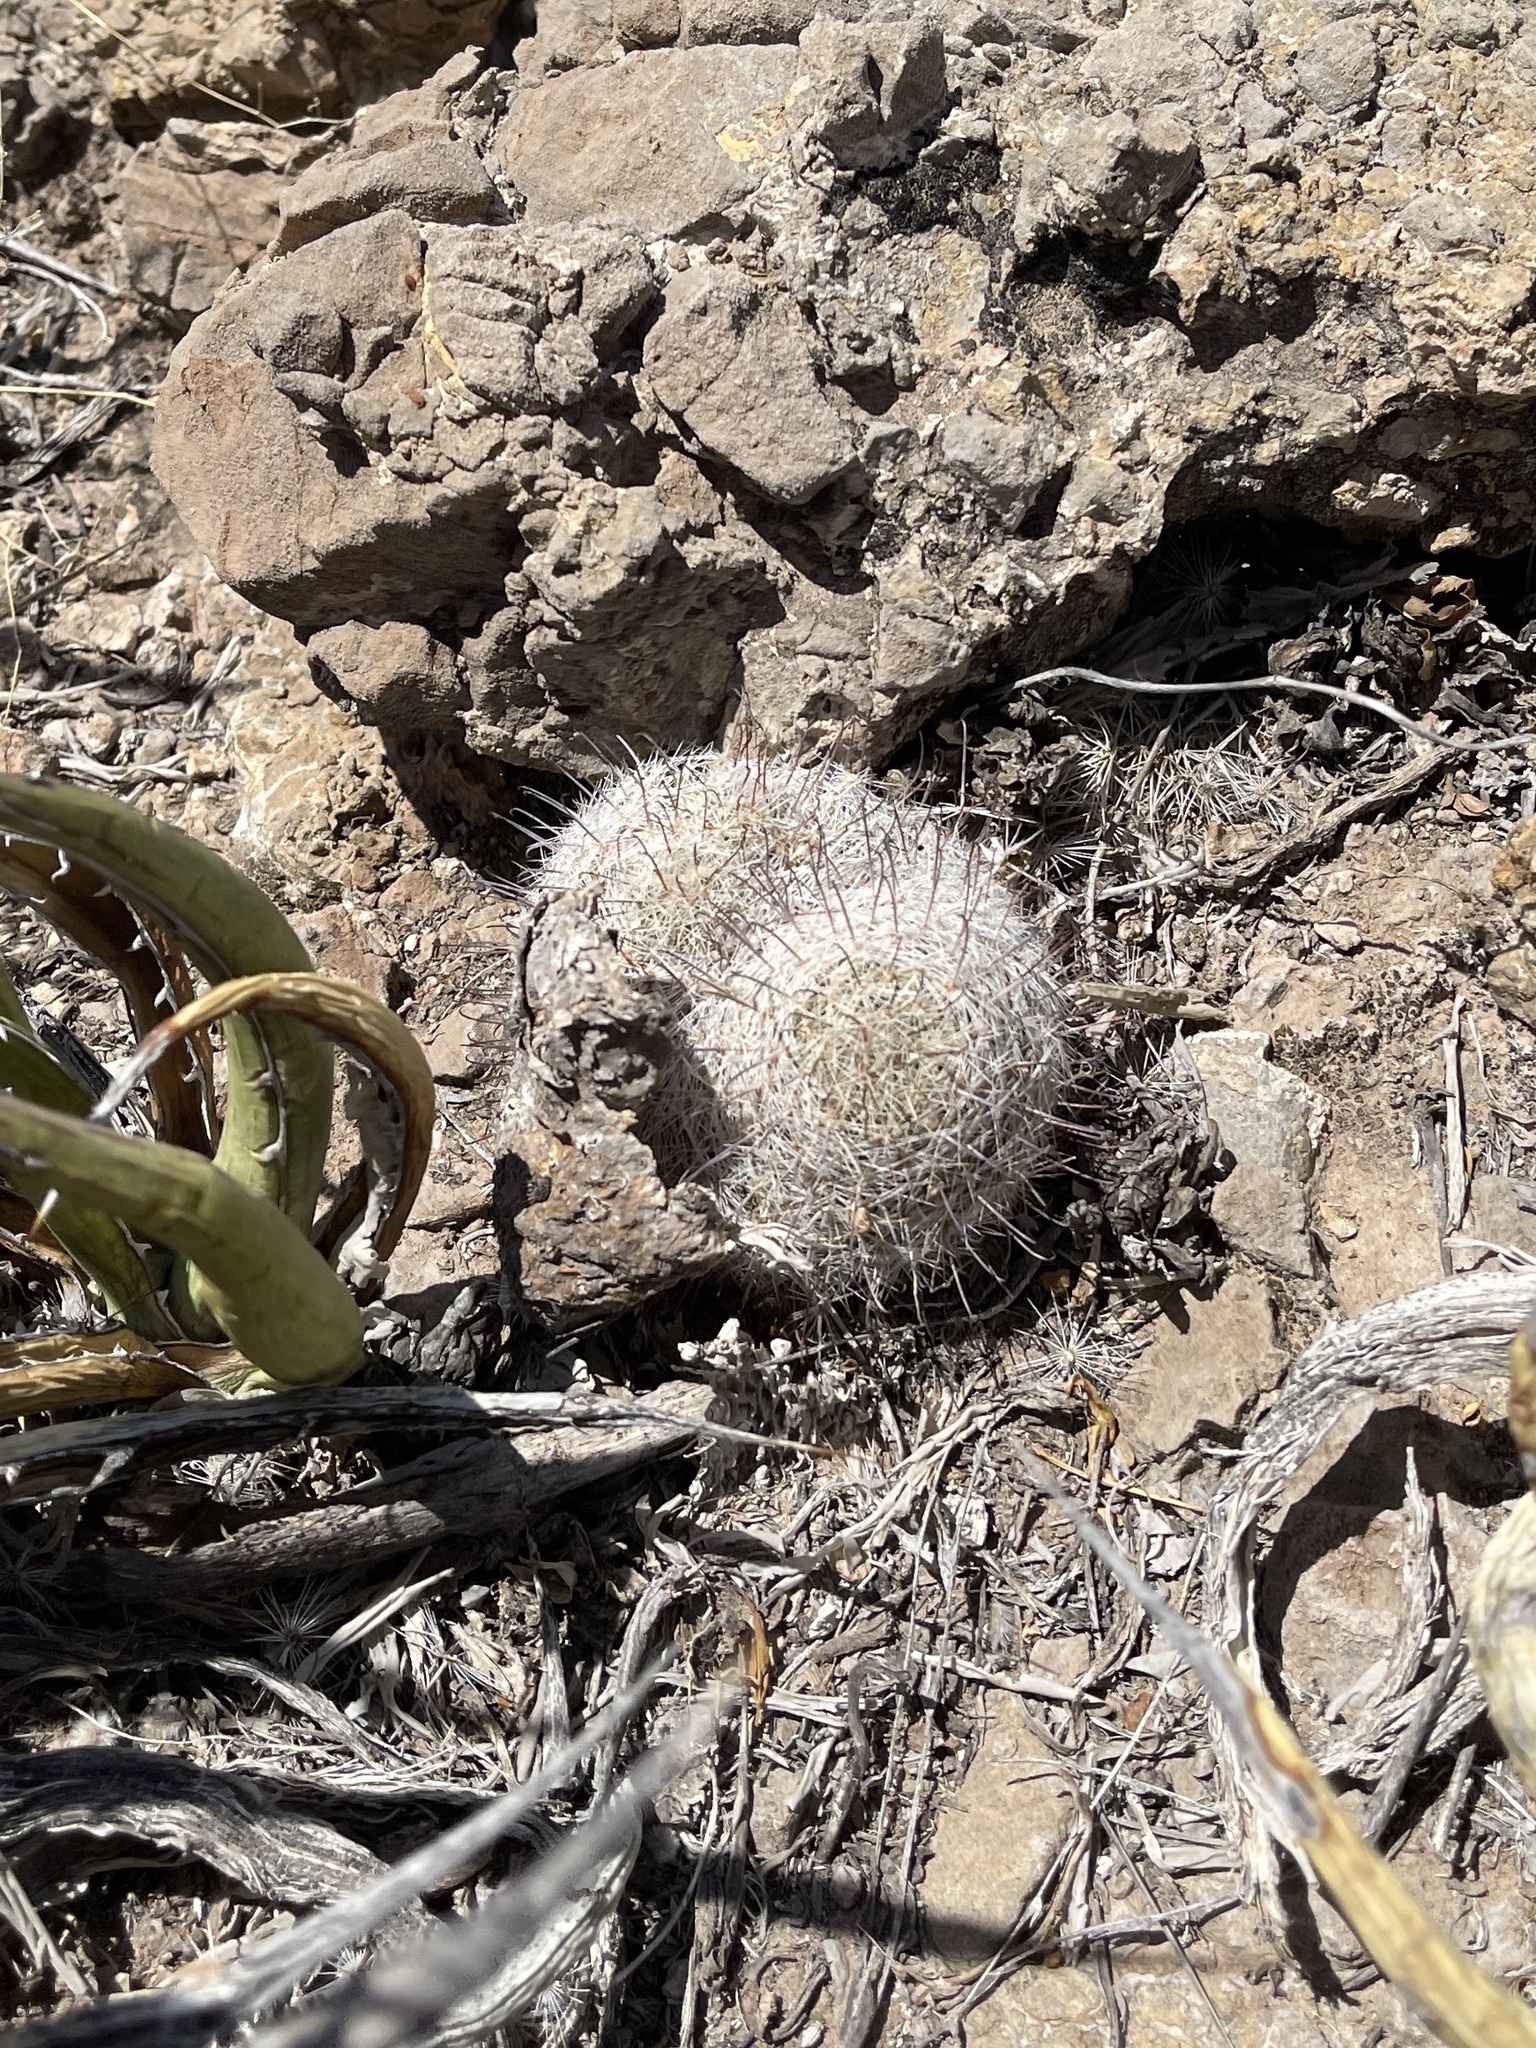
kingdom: Plantae
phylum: Tracheophyta
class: Magnoliopsida
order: Caryophyllales
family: Cactaceae
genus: Cochemiea
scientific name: Cochemiea grahamii
